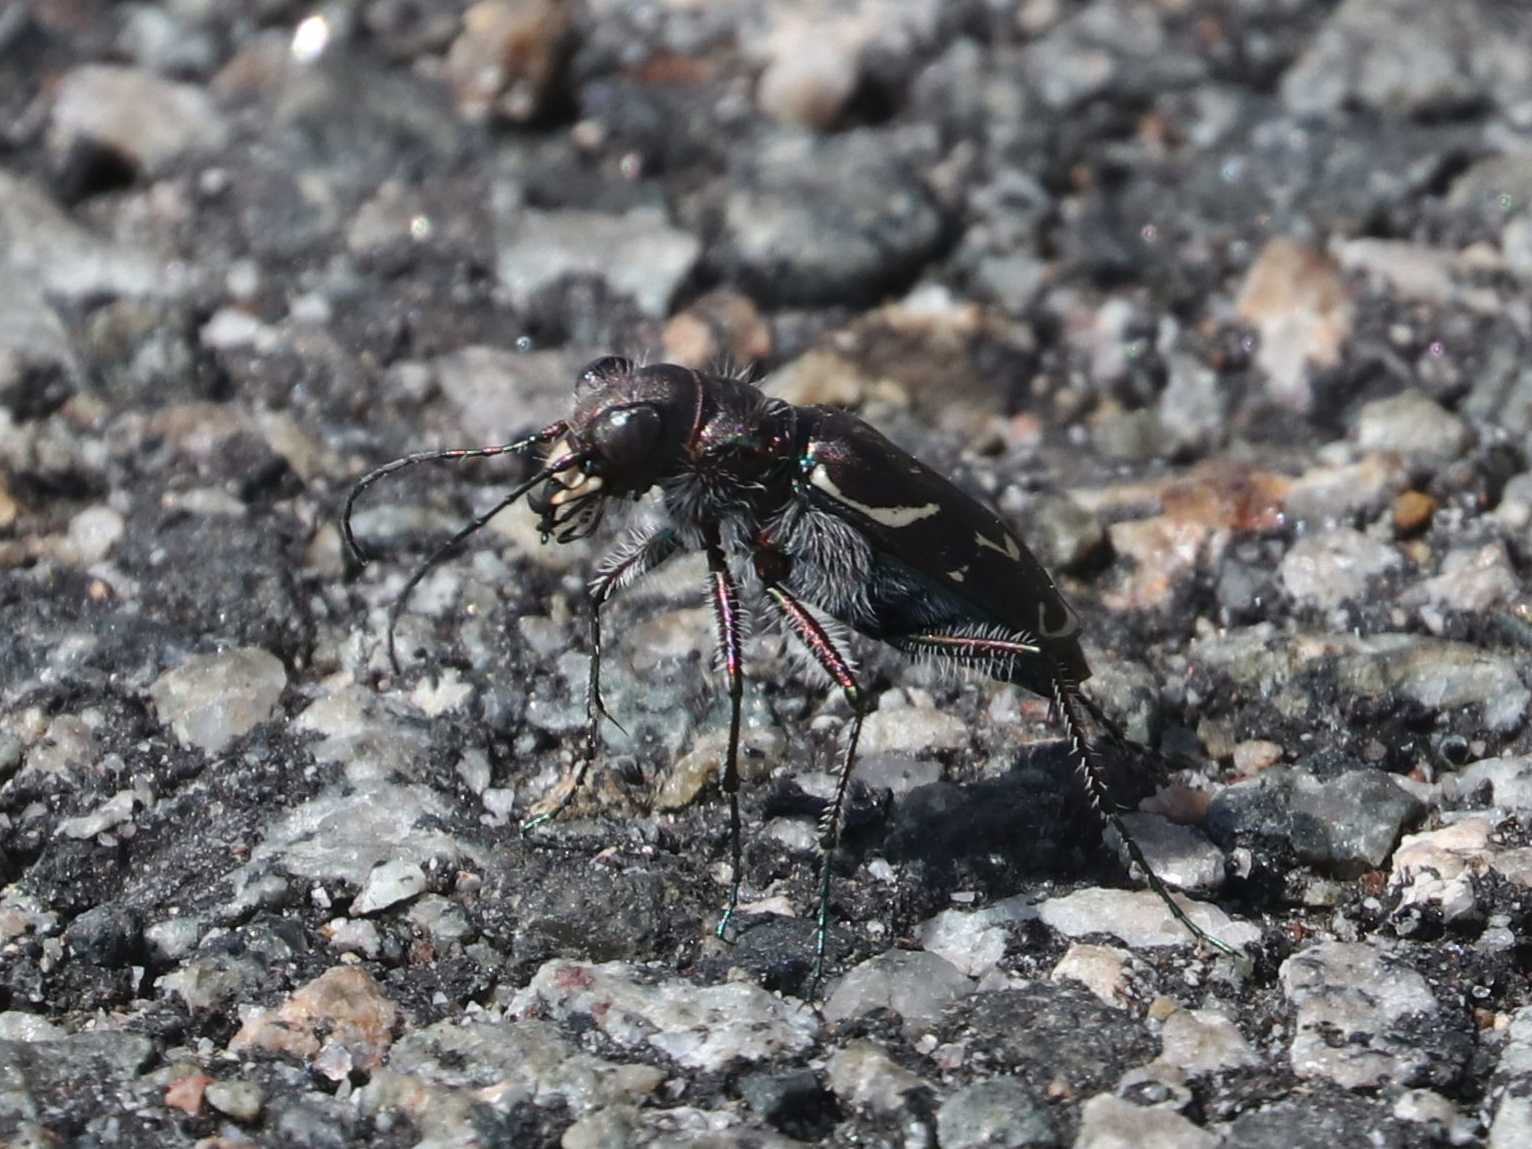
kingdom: Animalia
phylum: Arthropoda
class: Insecta
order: Coleoptera
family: Carabidae
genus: Cicindela
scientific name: Cicindela tranquebarica
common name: Oblique-lined tiger beetle
